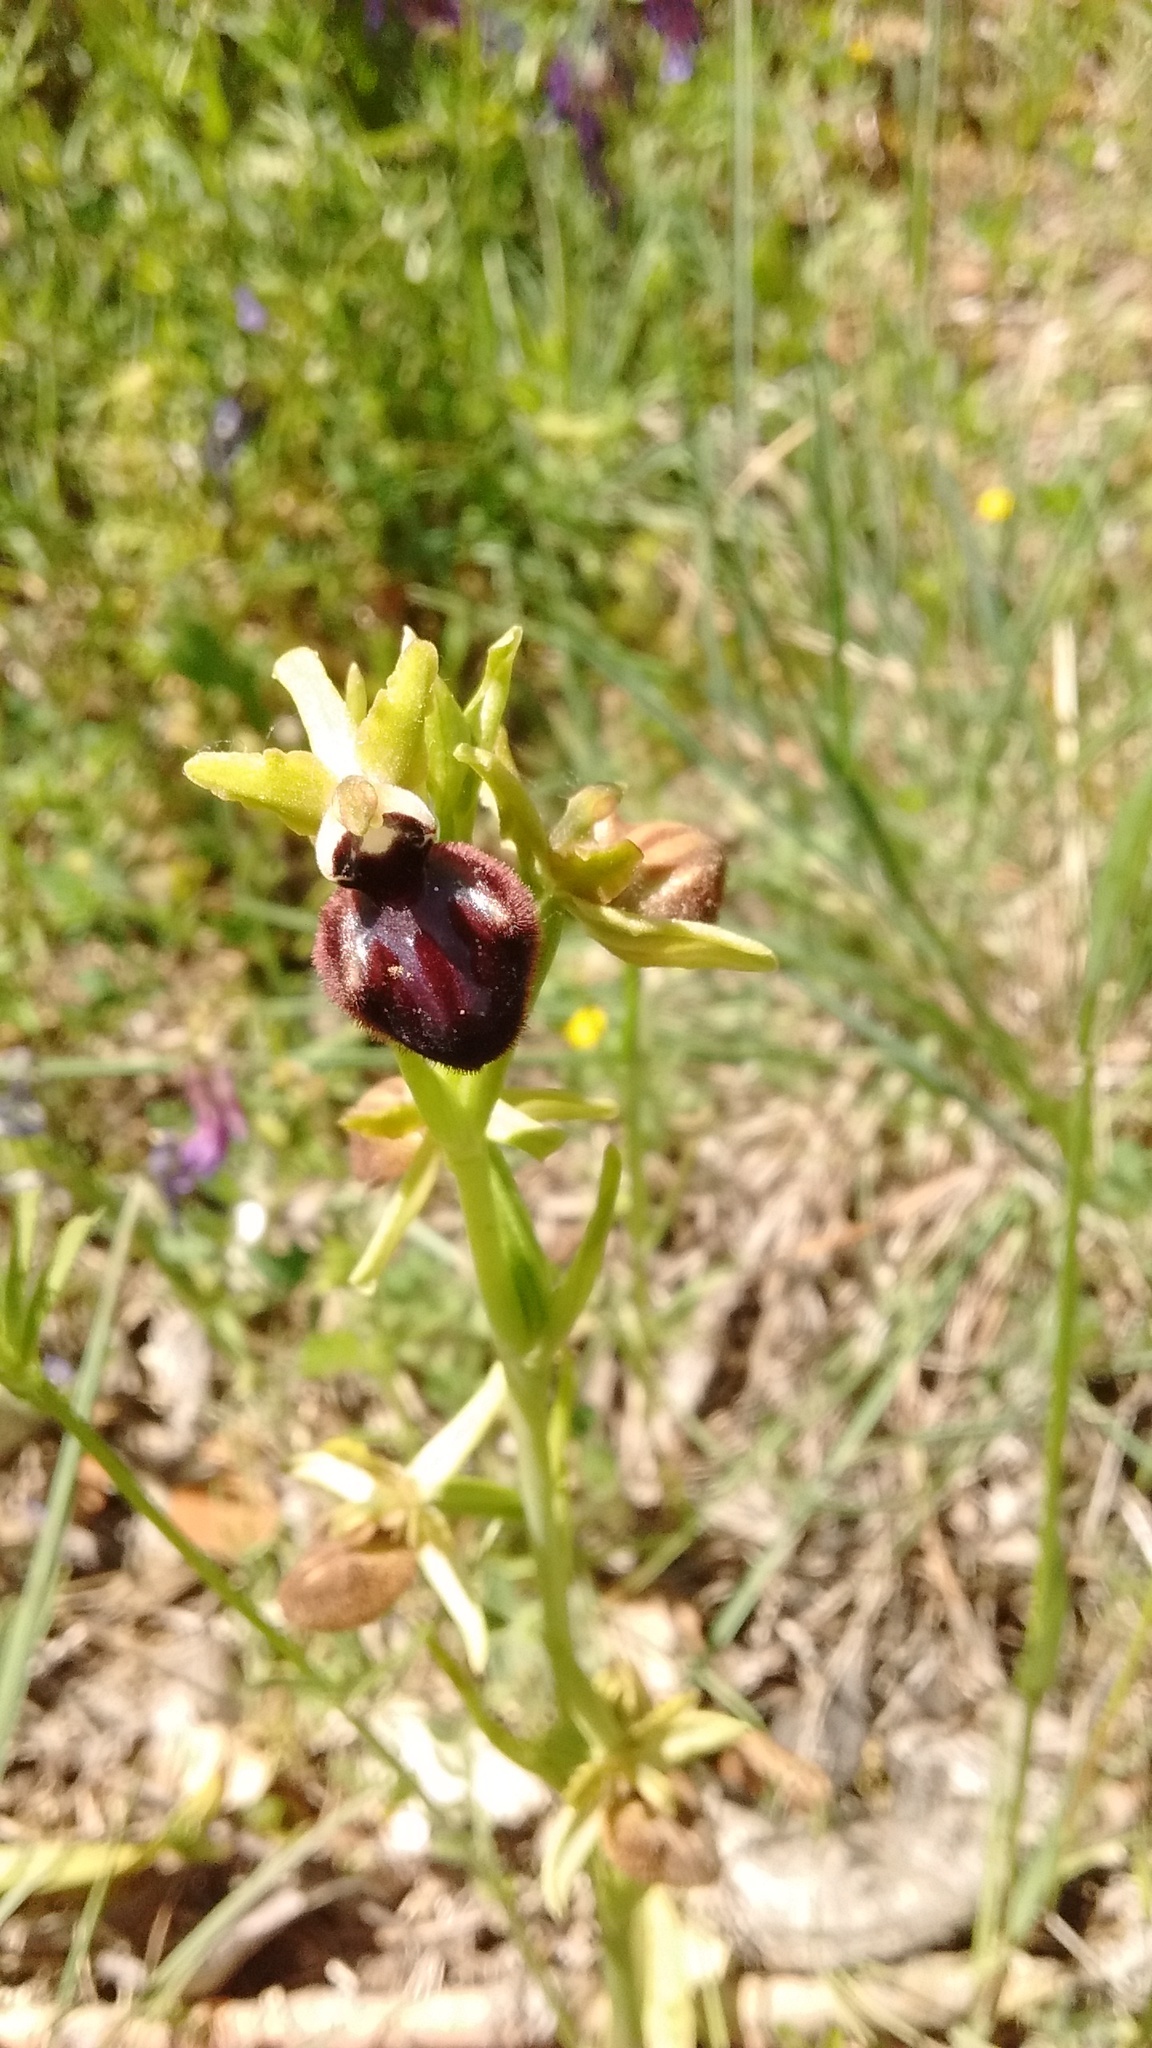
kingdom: Plantae
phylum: Tracheophyta
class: Liliopsida
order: Asparagales
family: Orchidaceae
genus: Ophrys
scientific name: Ophrys sphegodes
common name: Early spider-orchid
